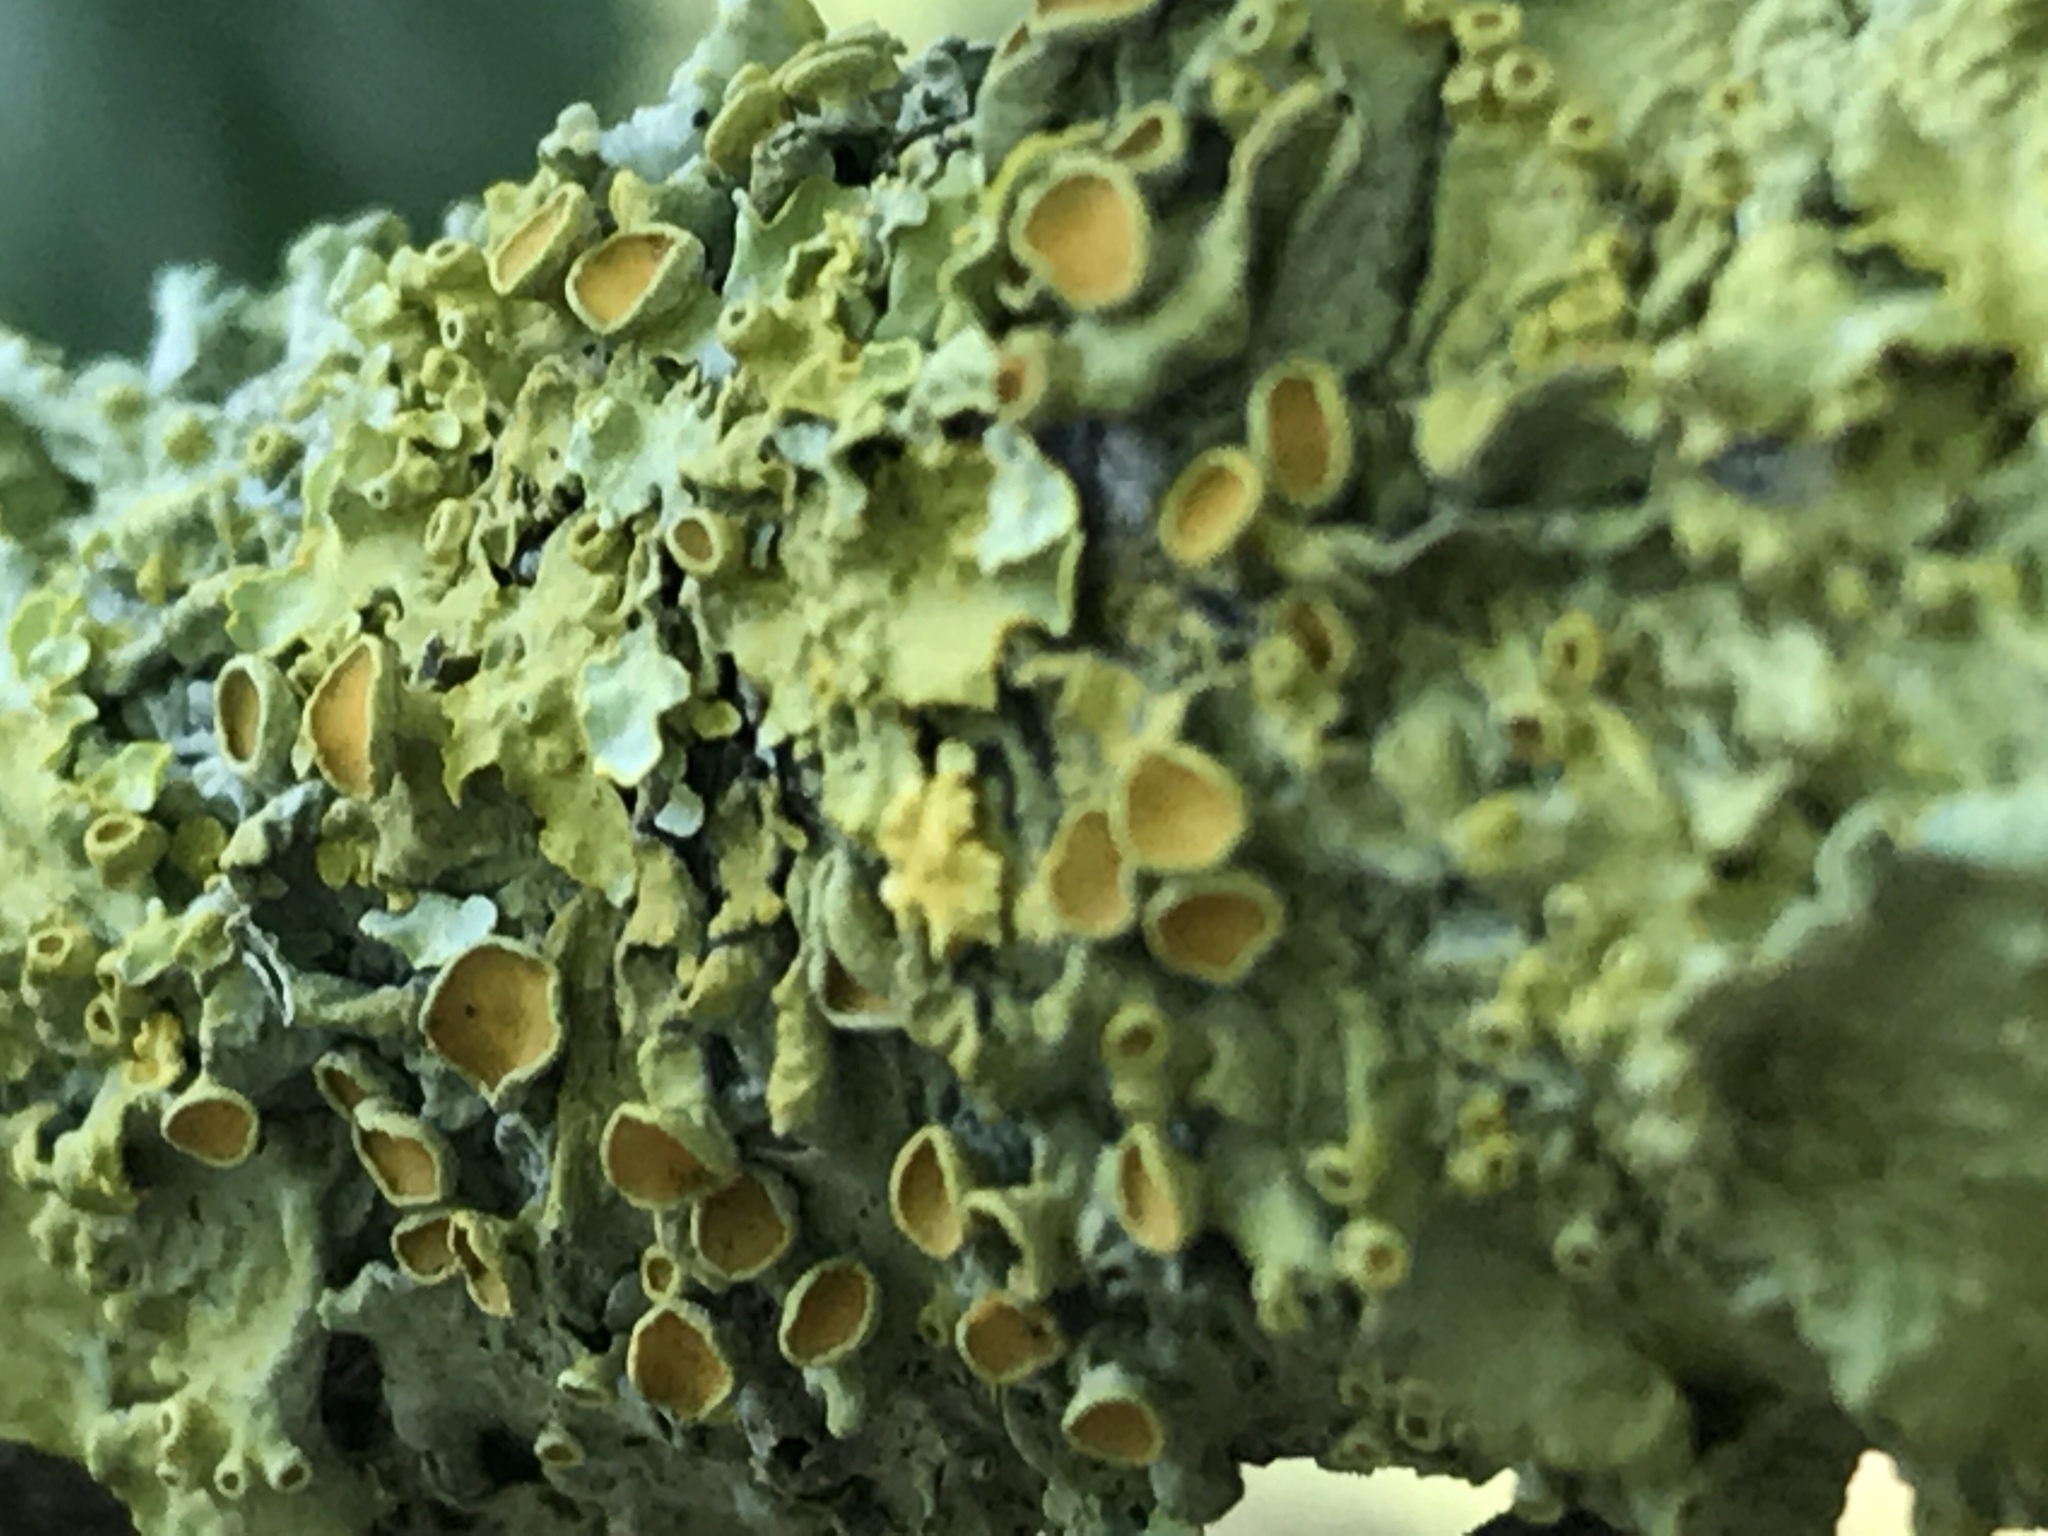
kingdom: Fungi
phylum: Ascomycota
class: Lecanoromycetes
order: Teloschistales
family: Teloschistaceae
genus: Xanthoria
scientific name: Xanthoria parietina
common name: Common orange lichen
